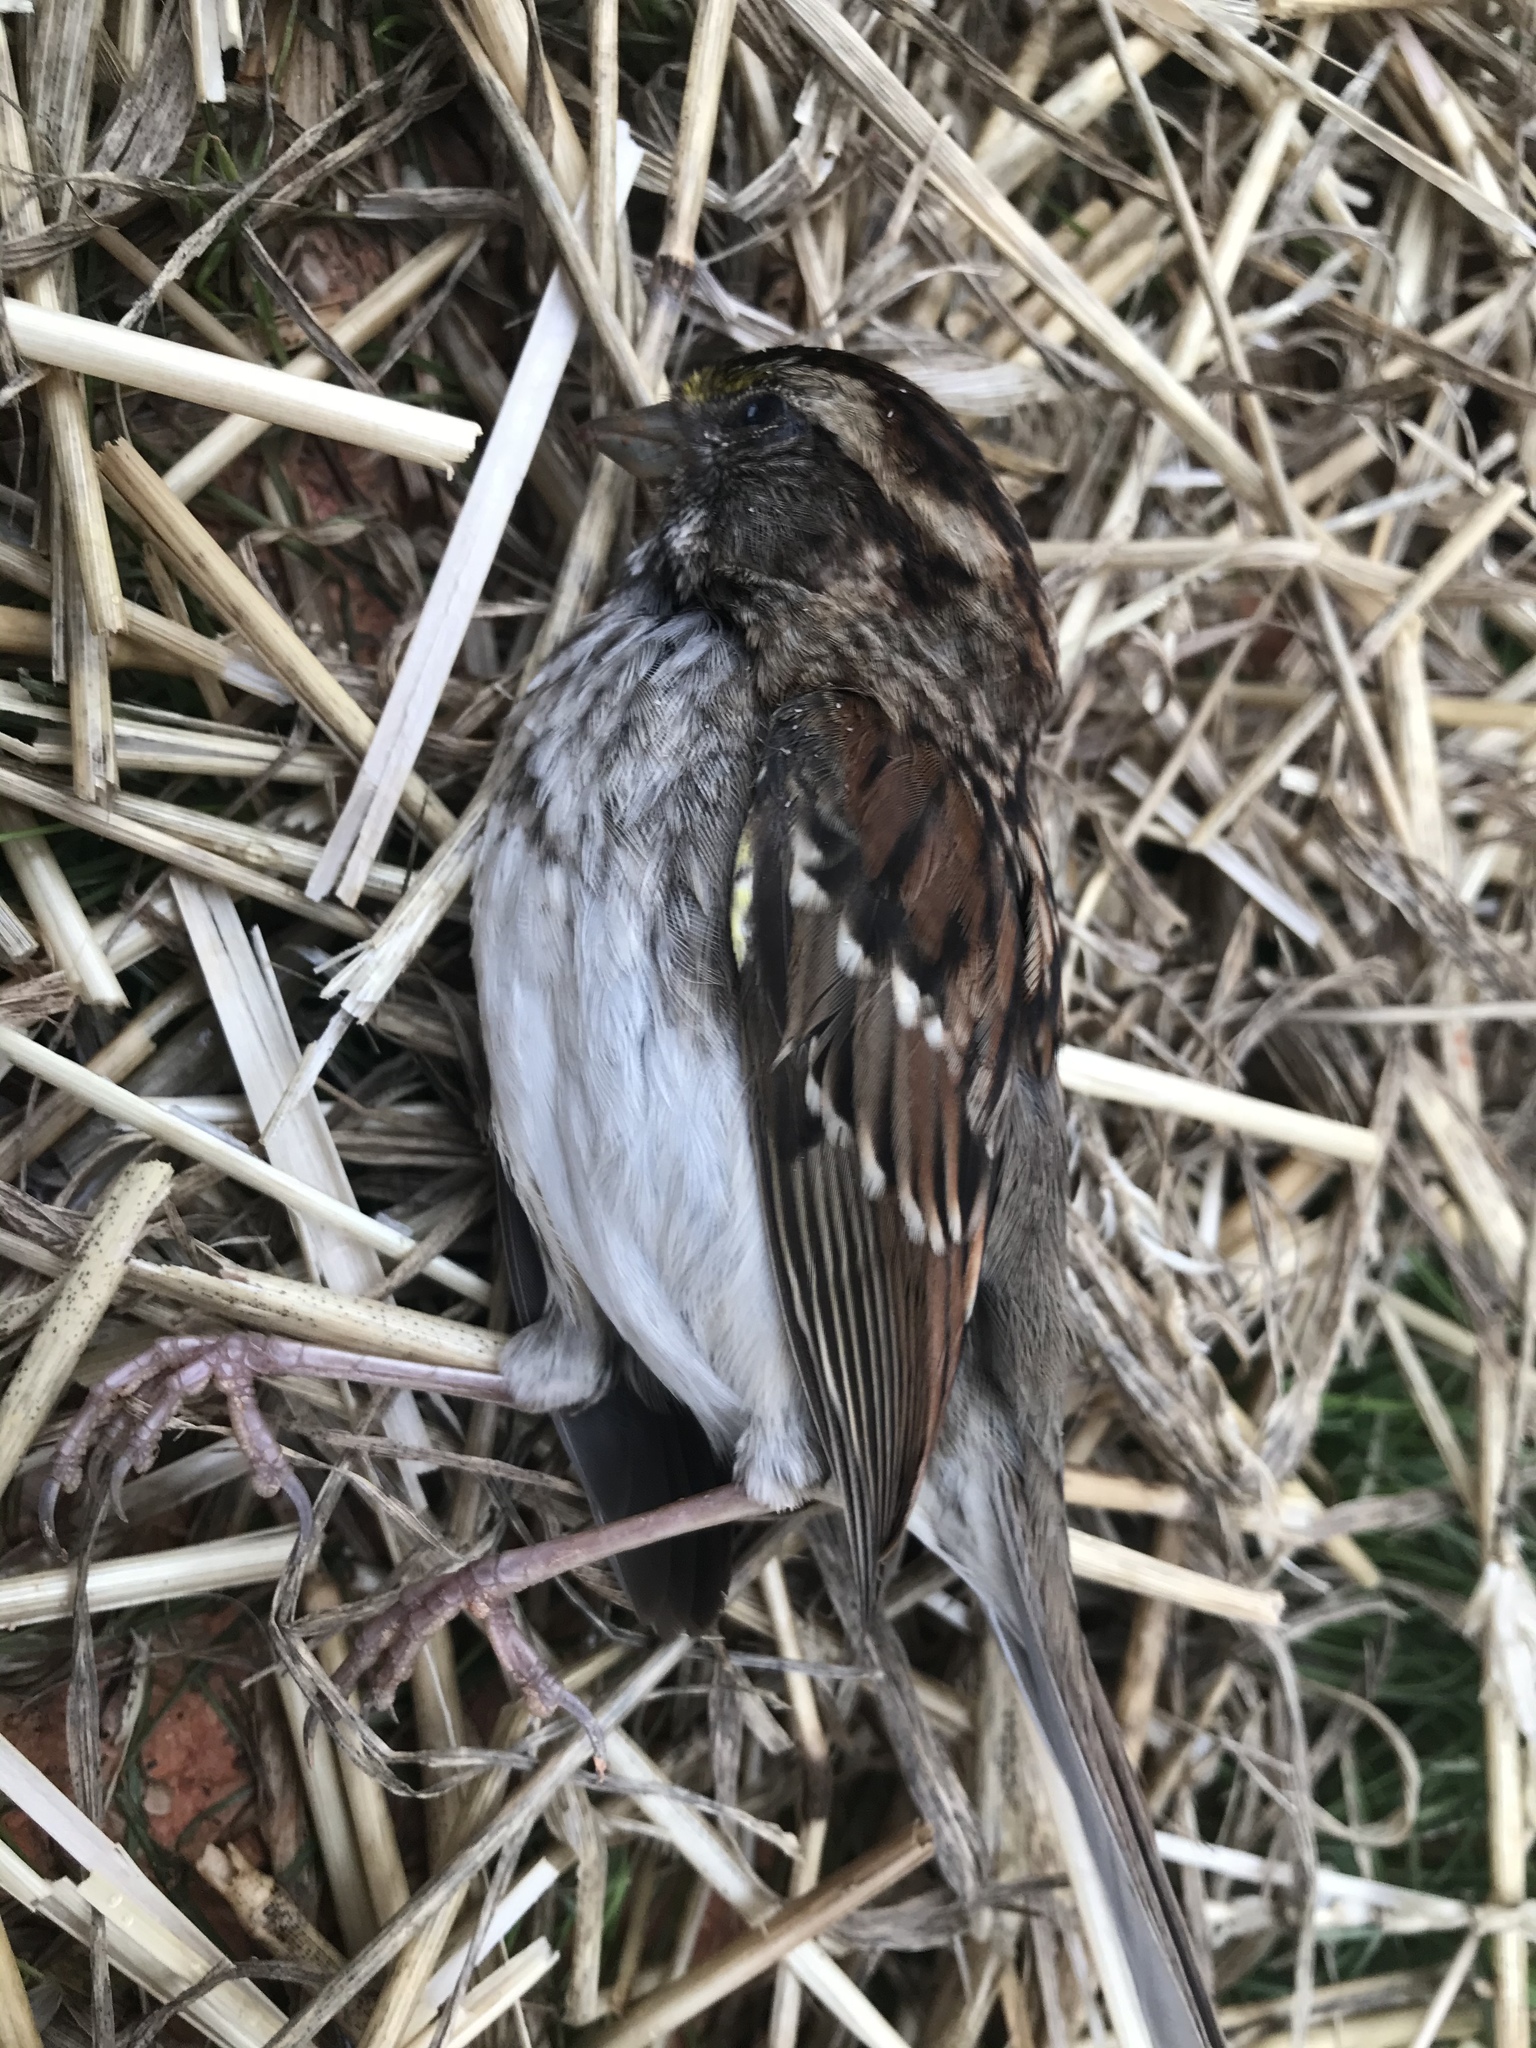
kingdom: Animalia
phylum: Chordata
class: Aves
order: Passeriformes
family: Passerellidae
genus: Zonotrichia
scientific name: Zonotrichia albicollis
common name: White-throated sparrow
